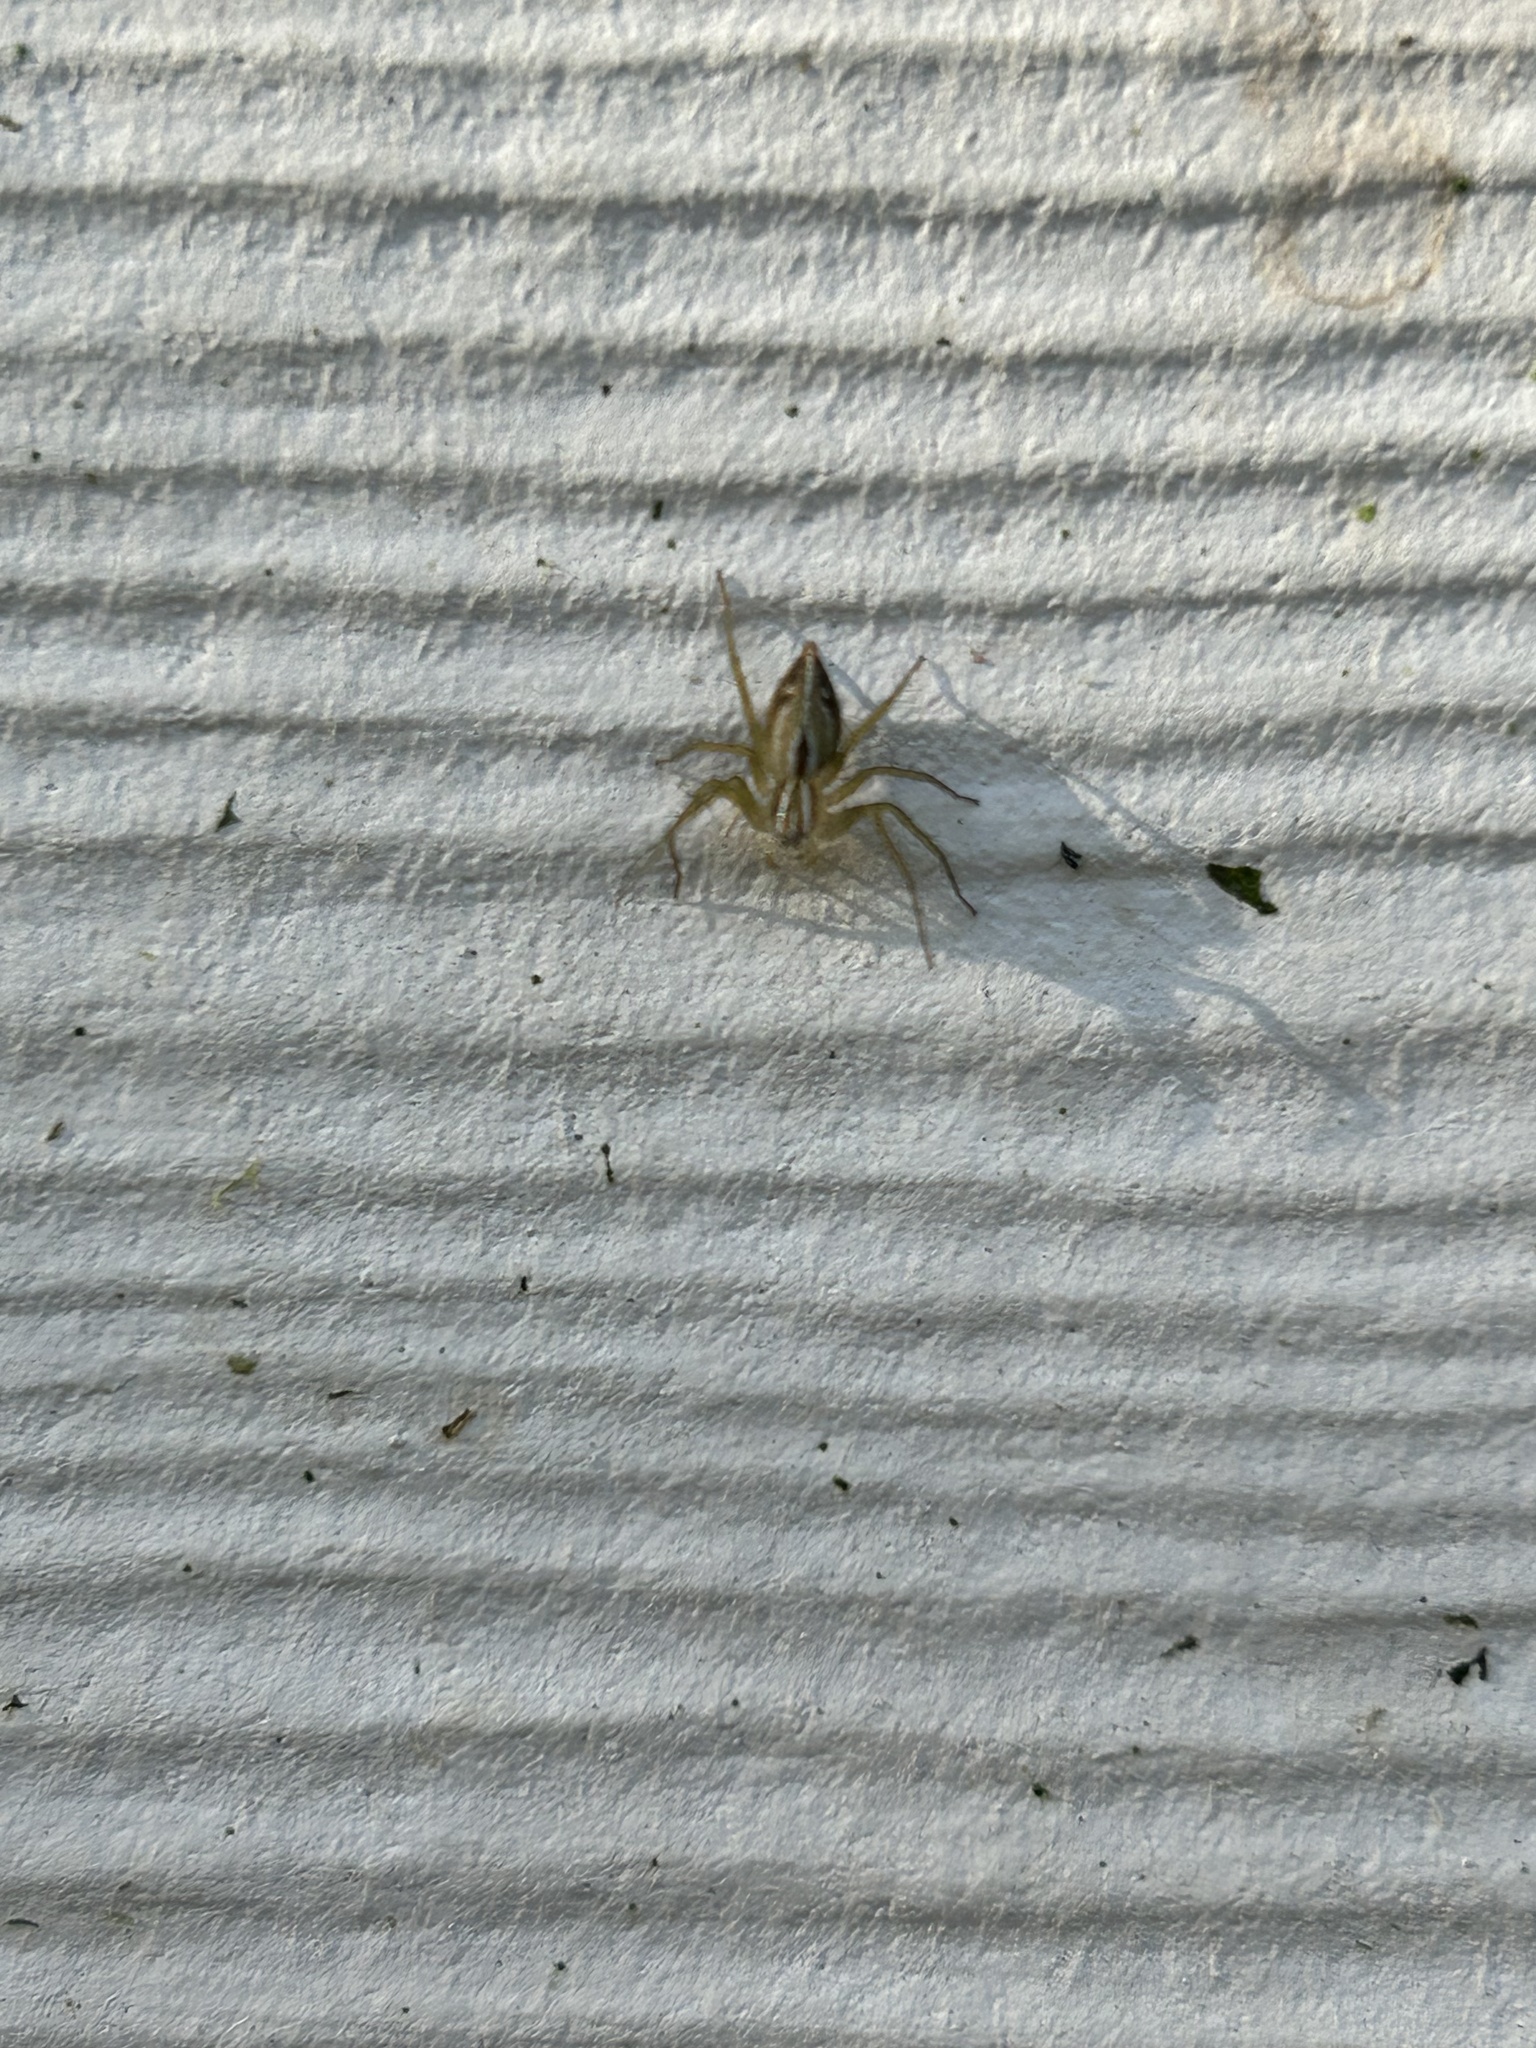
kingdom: Animalia
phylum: Arthropoda
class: Arachnida
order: Araneae
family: Oxyopidae
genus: Oxyopes
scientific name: Oxyopes salticus
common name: Lynx spiders
